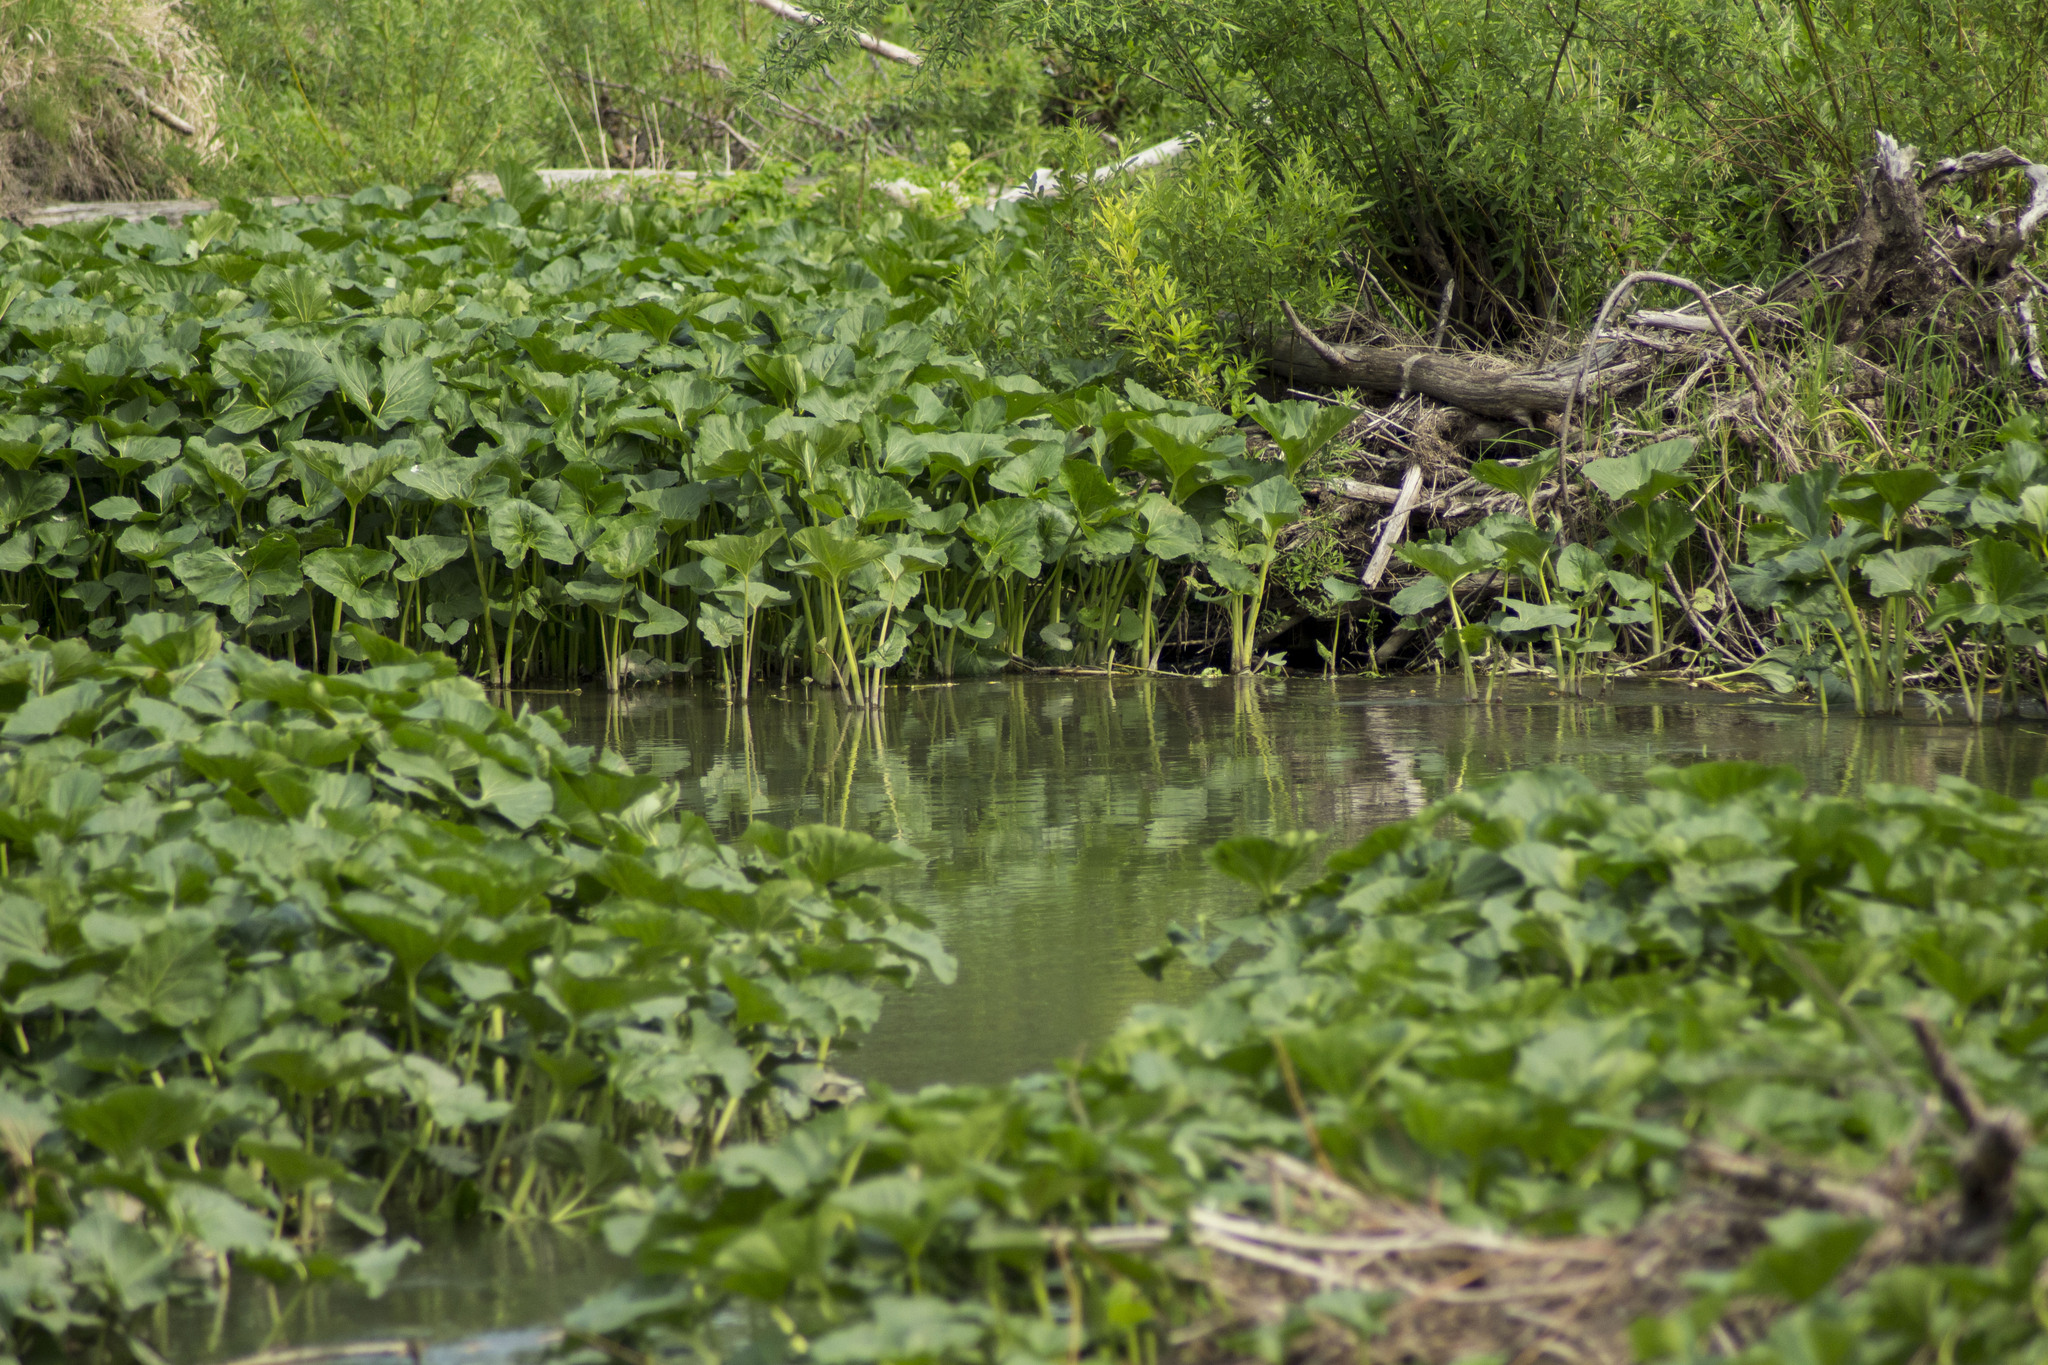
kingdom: Plantae
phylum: Tracheophyta
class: Magnoliopsida
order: Asterales
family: Asteraceae
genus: Petasites
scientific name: Petasites radiatus
